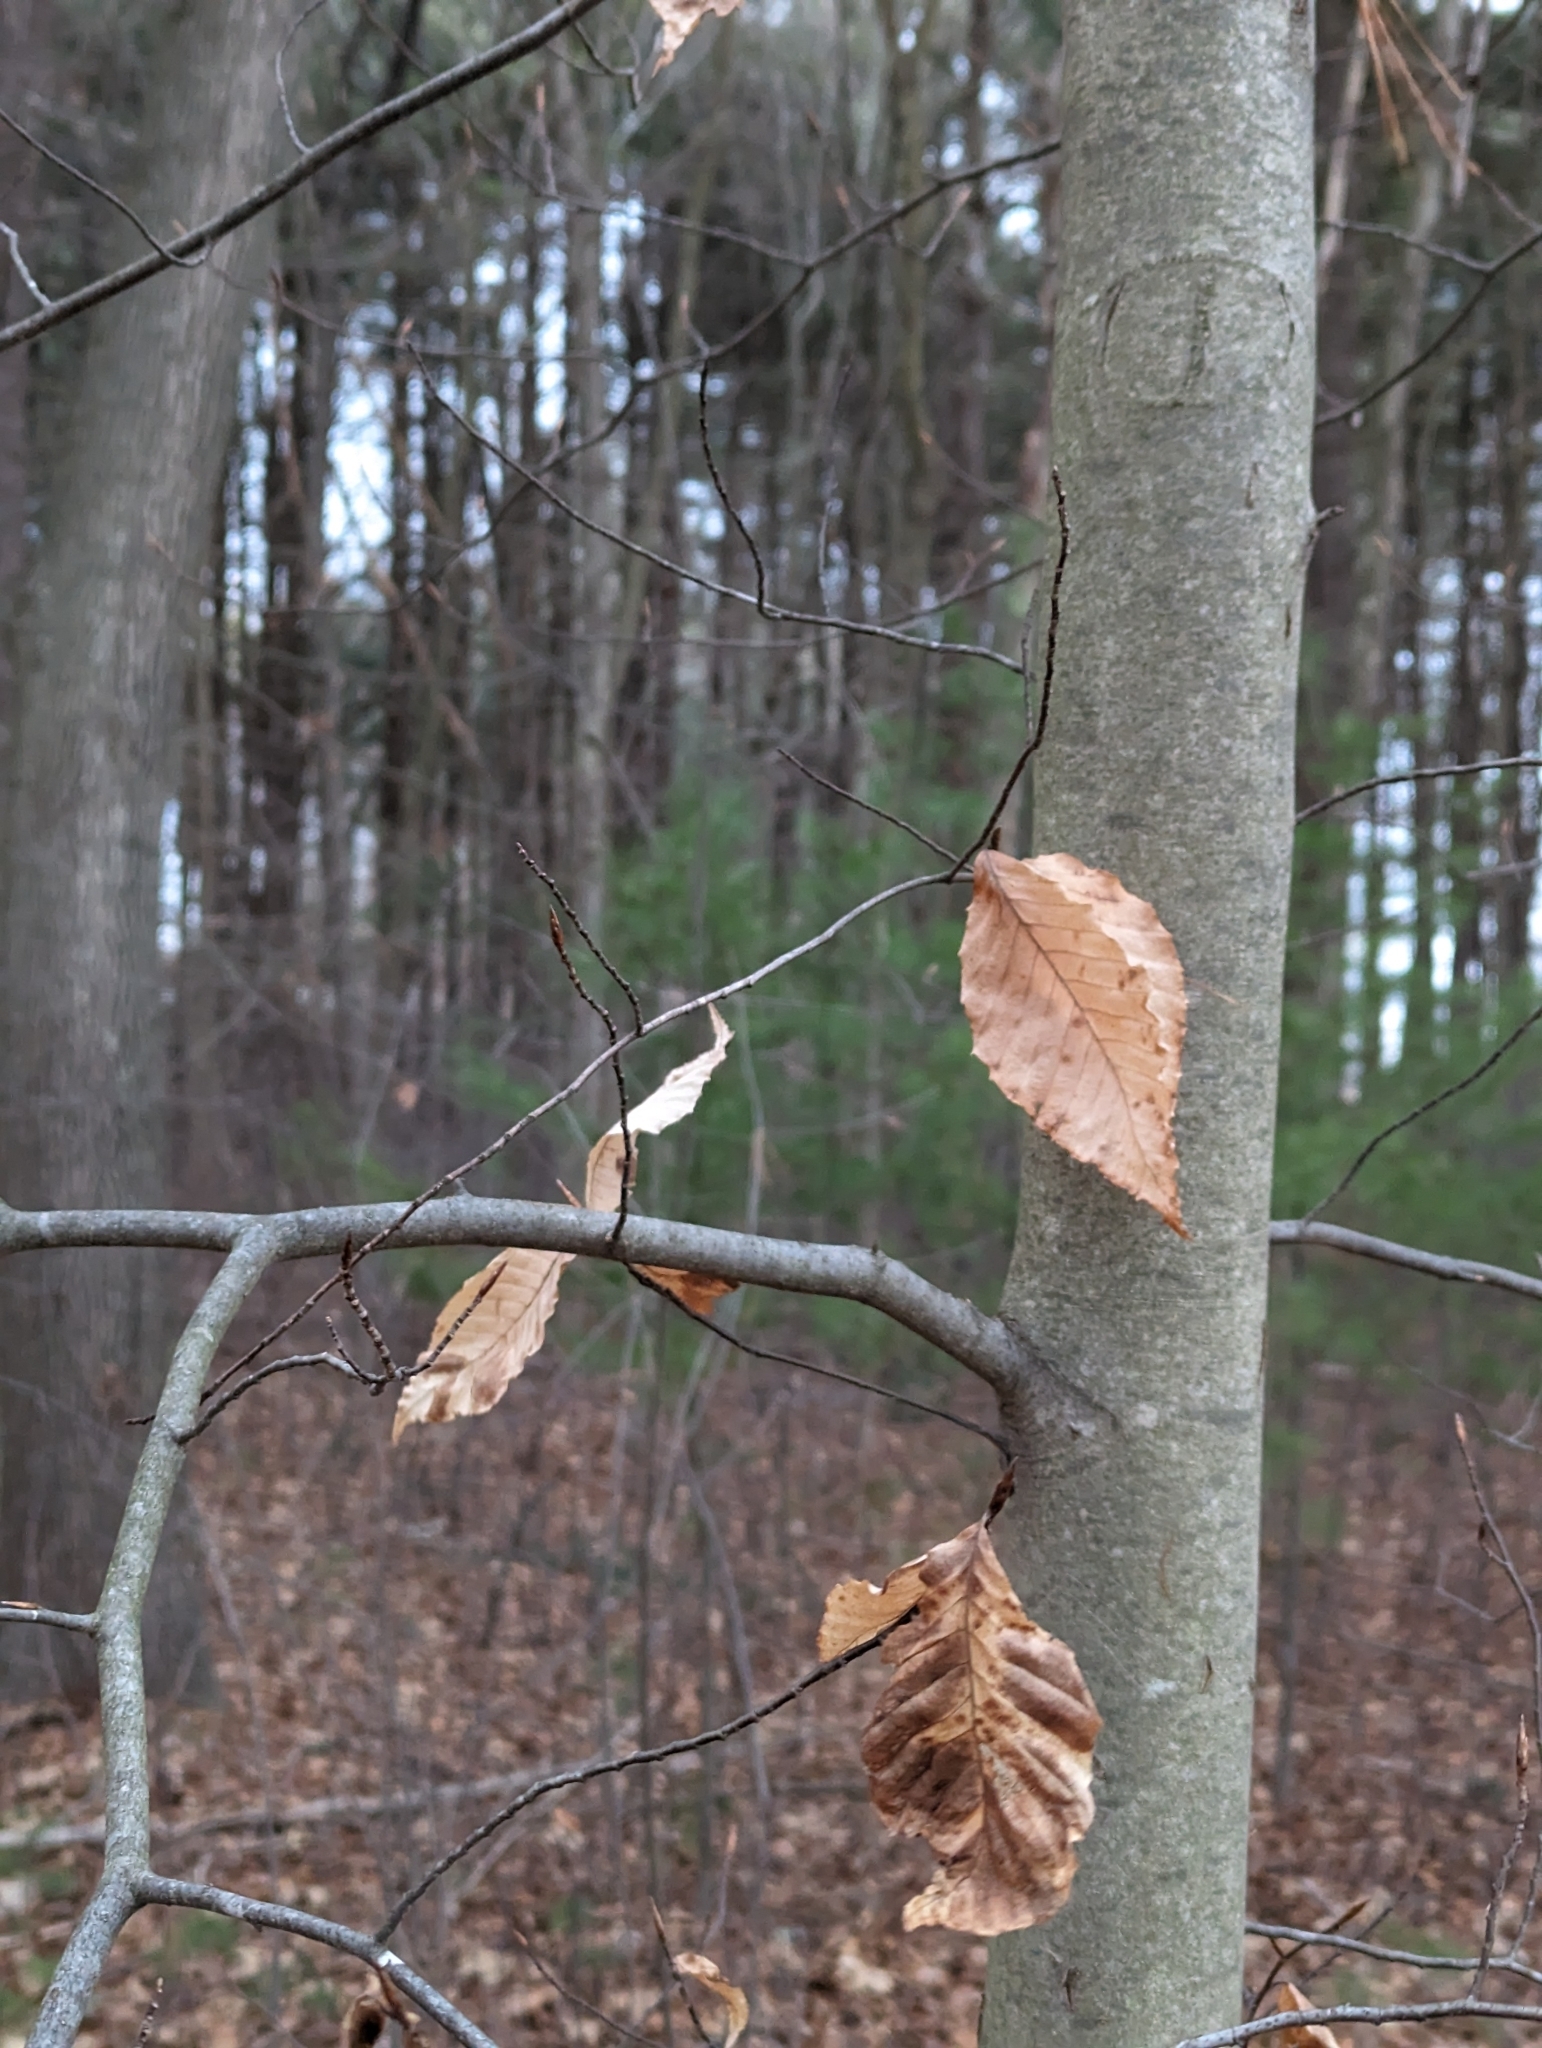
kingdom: Plantae
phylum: Tracheophyta
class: Magnoliopsida
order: Fagales
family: Fagaceae
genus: Fagus
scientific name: Fagus grandifolia
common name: American beech
